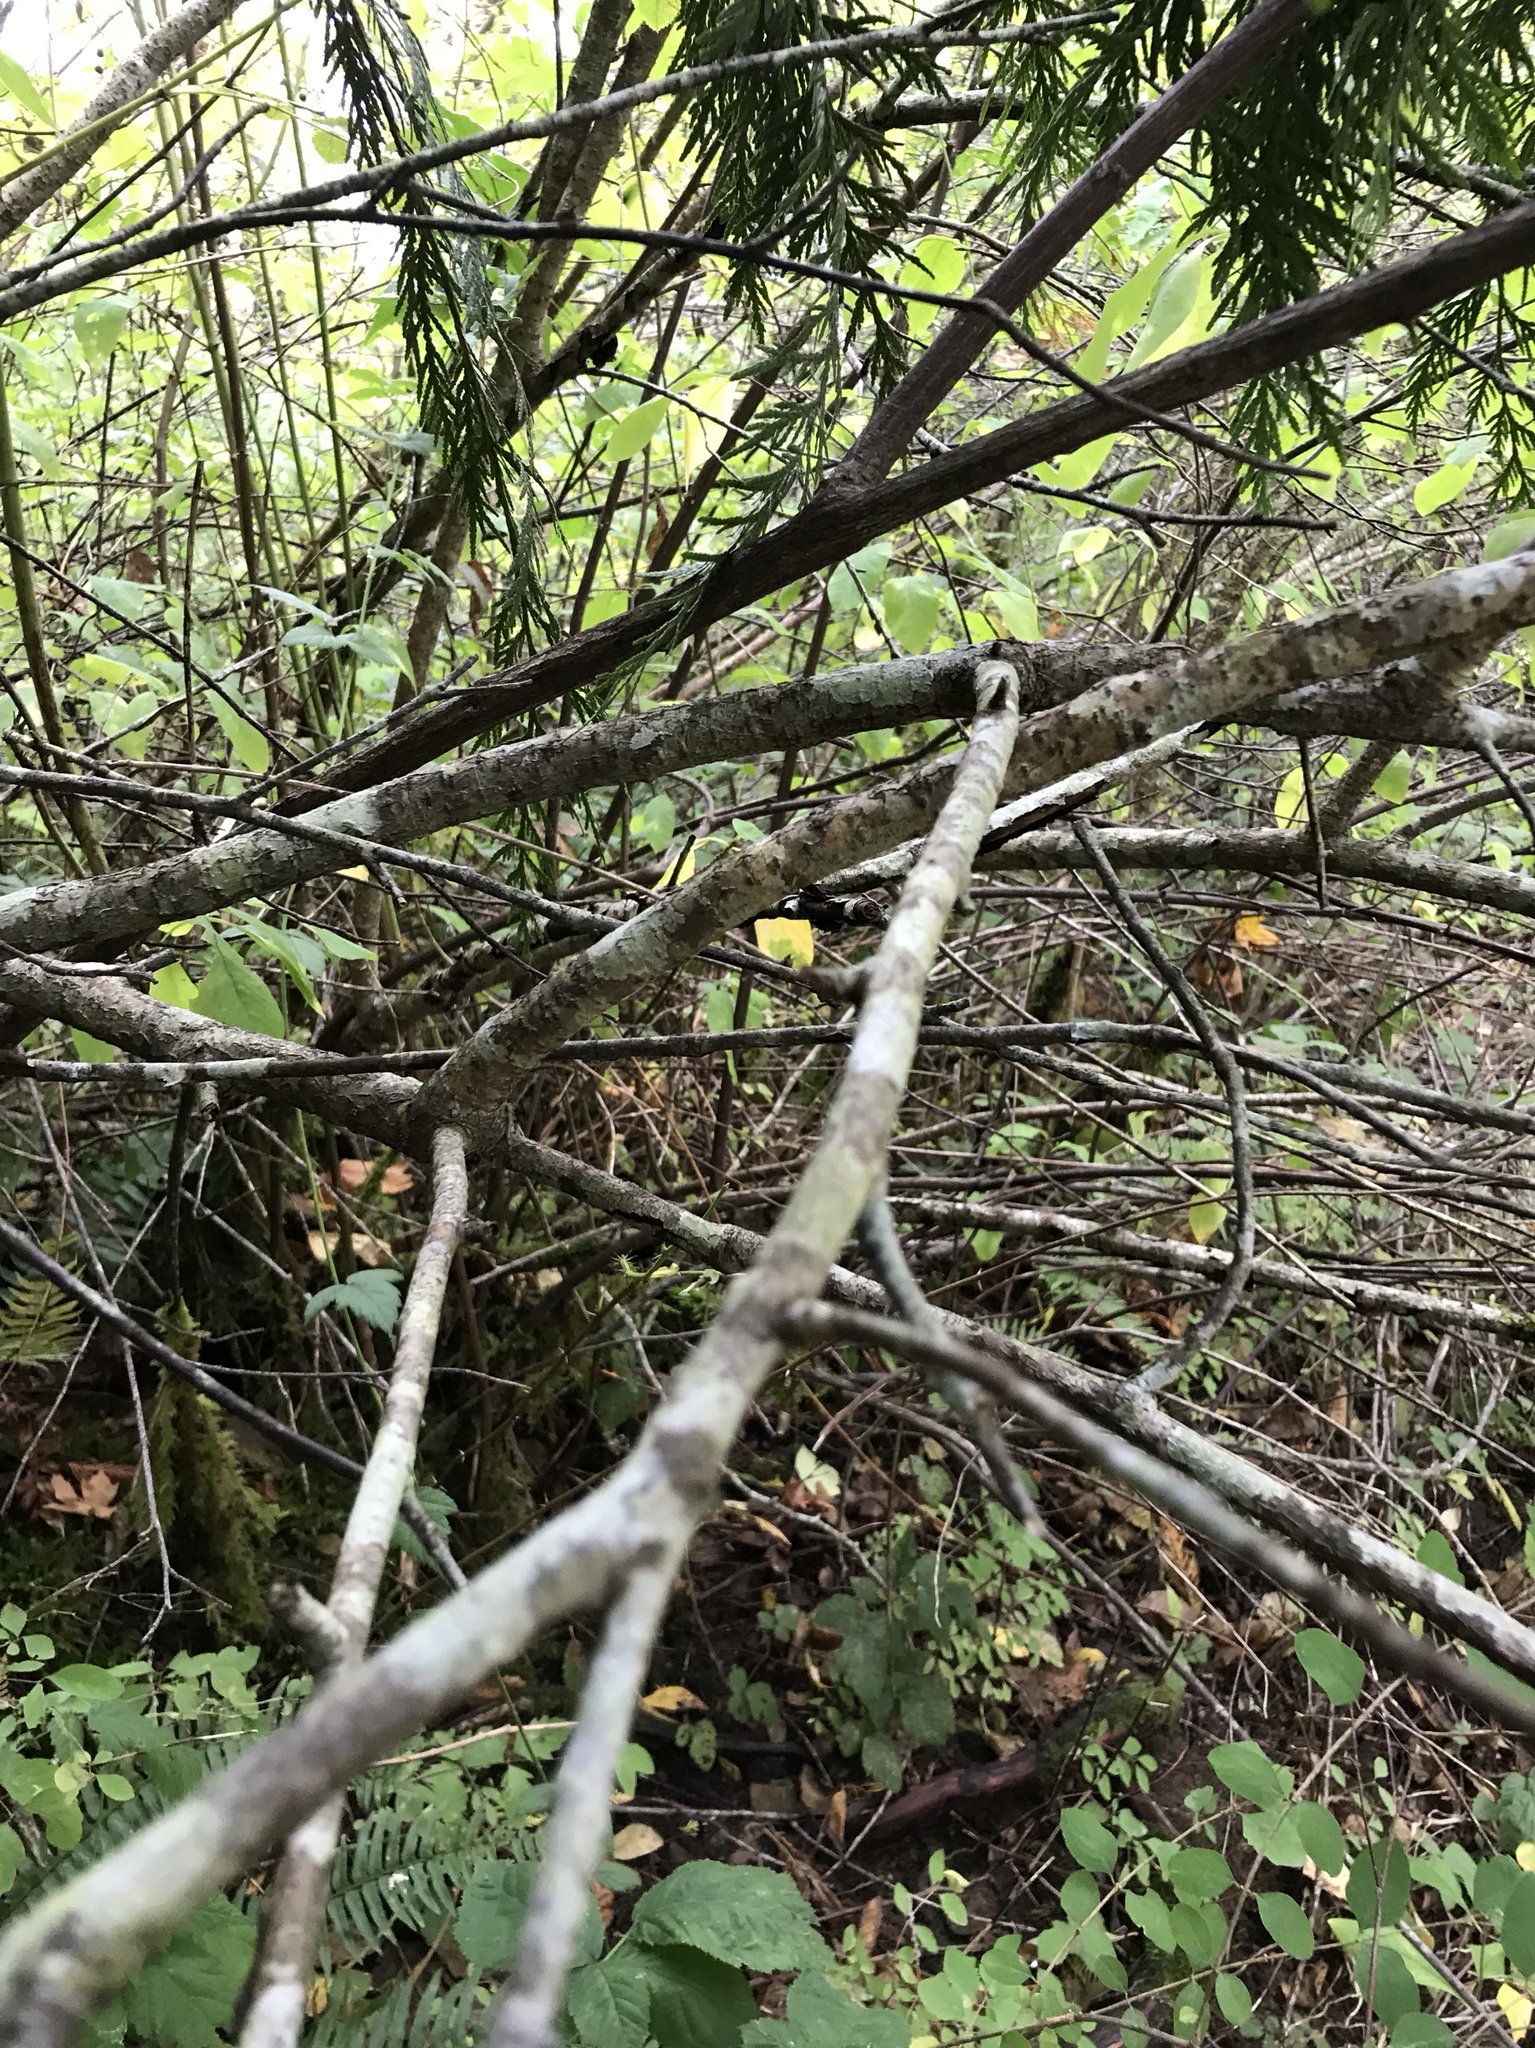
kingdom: Plantae
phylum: Tracheophyta
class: Magnoliopsida
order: Rosales
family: Rosaceae
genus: Oemleria
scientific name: Oemleria cerasiformis
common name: Osoberry
